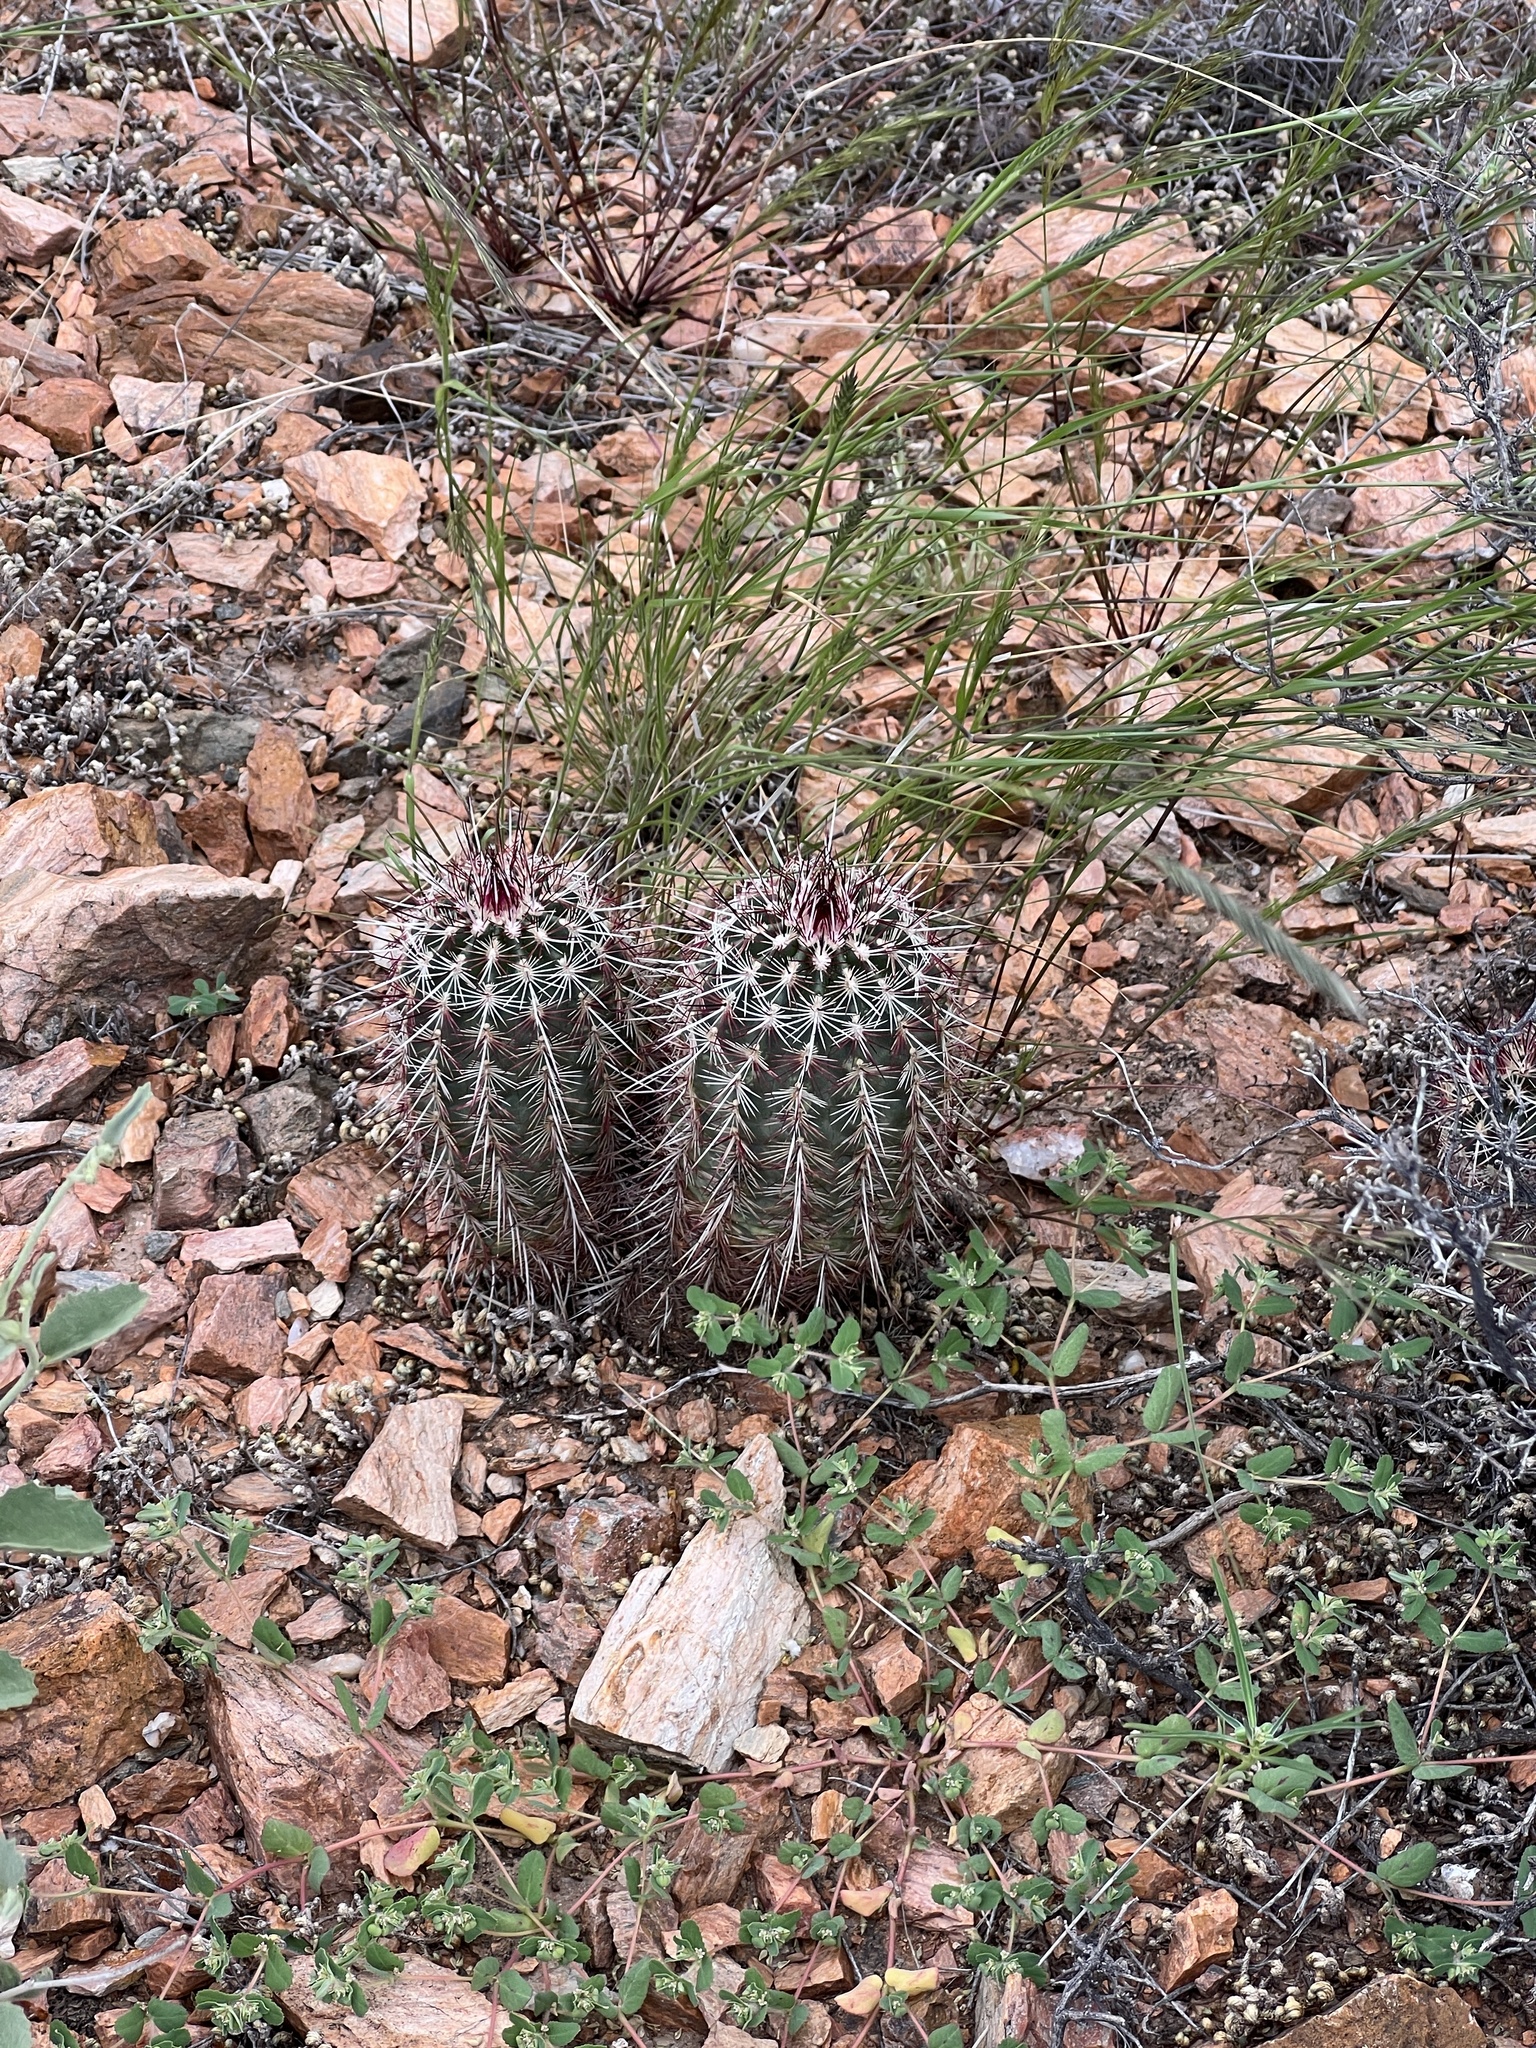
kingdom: Plantae
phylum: Tracheophyta
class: Magnoliopsida
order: Caryophyllales
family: Cactaceae
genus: Echinocereus
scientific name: Echinocereus viridiflorus
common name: Nylon hedgehog cactus
